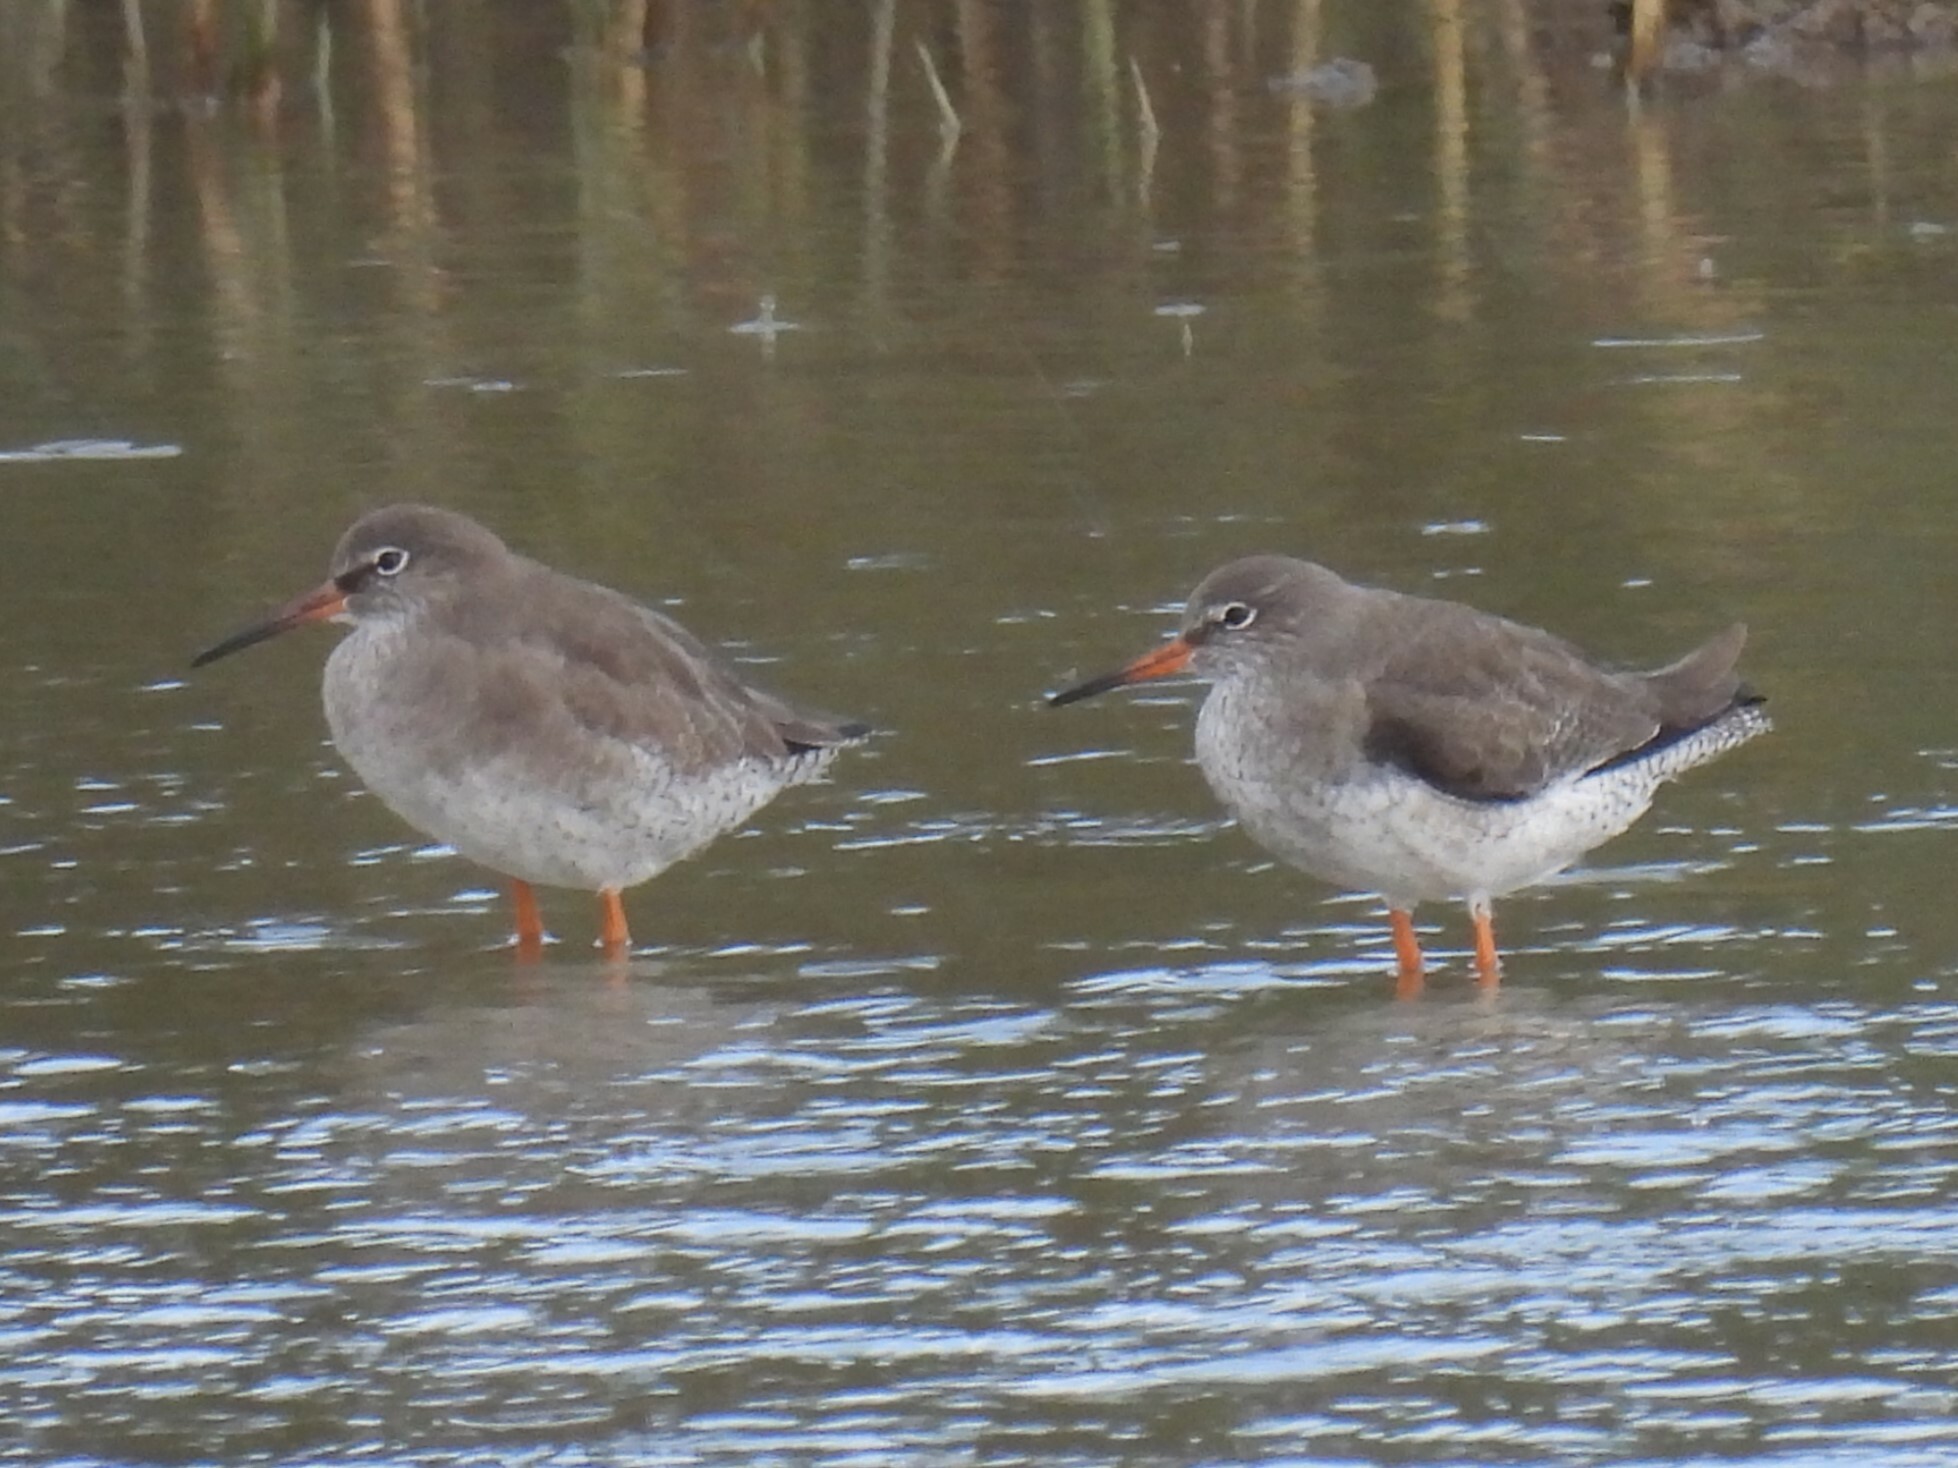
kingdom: Animalia
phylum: Chordata
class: Aves
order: Charadriiformes
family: Scolopacidae
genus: Tringa
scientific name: Tringa totanus
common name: Common redshank
